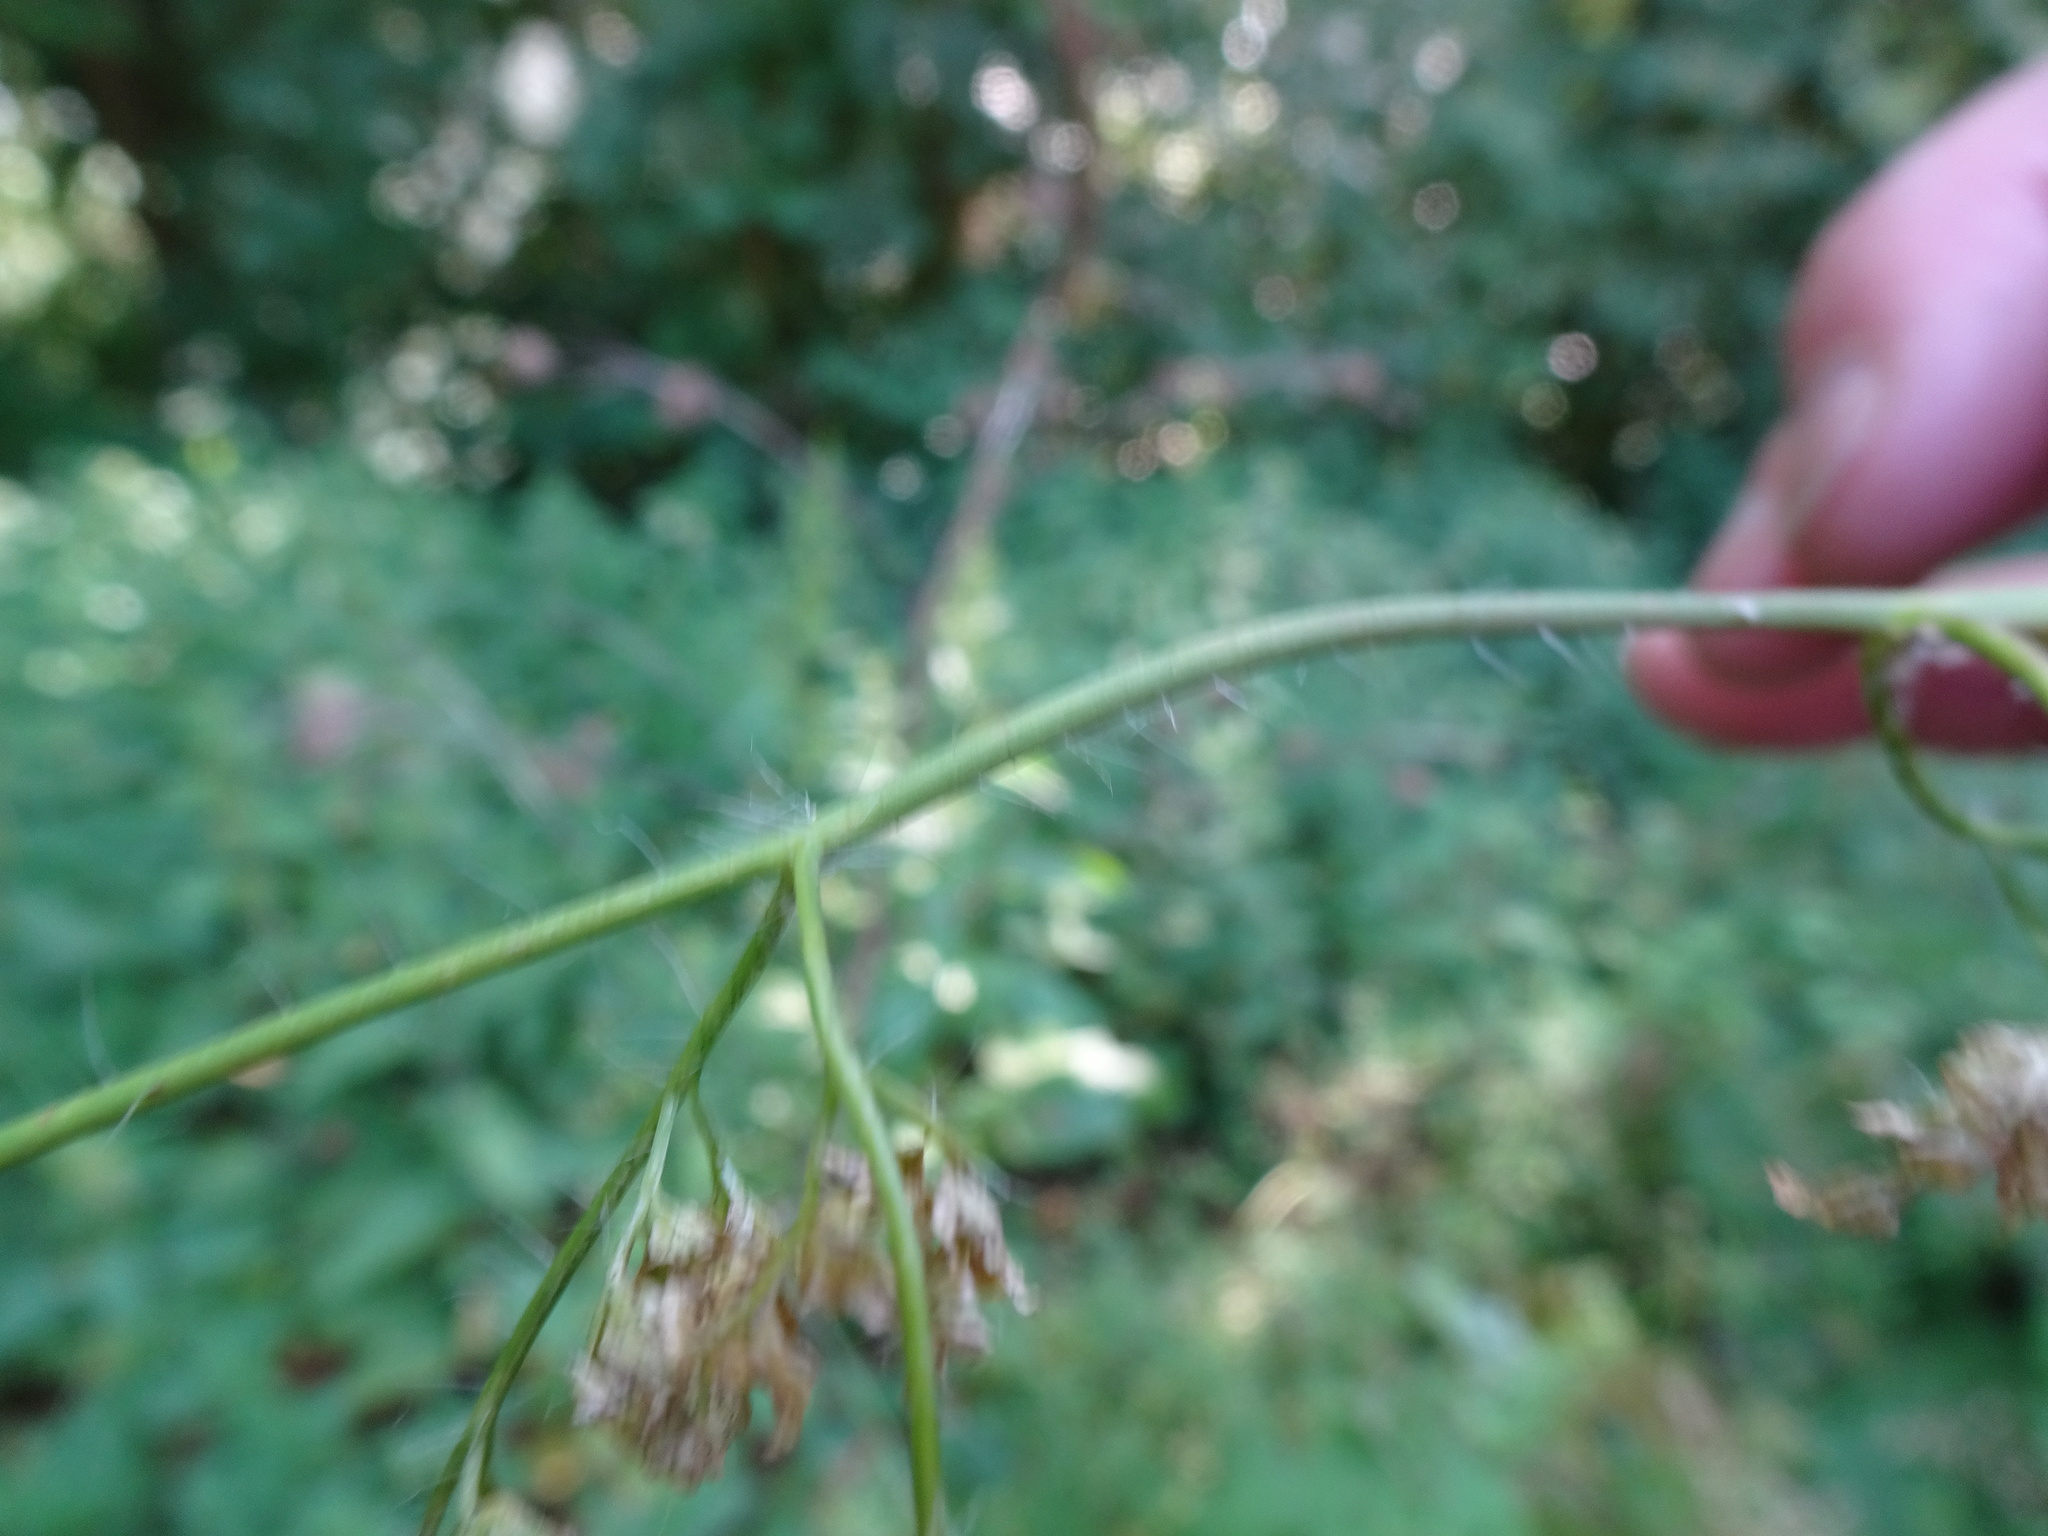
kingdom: Plantae
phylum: Tracheophyta
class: Magnoliopsida
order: Apiales
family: Apiaceae
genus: Chaerophyllum
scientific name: Chaerophyllum bulbosum
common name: Bulbous chervil
